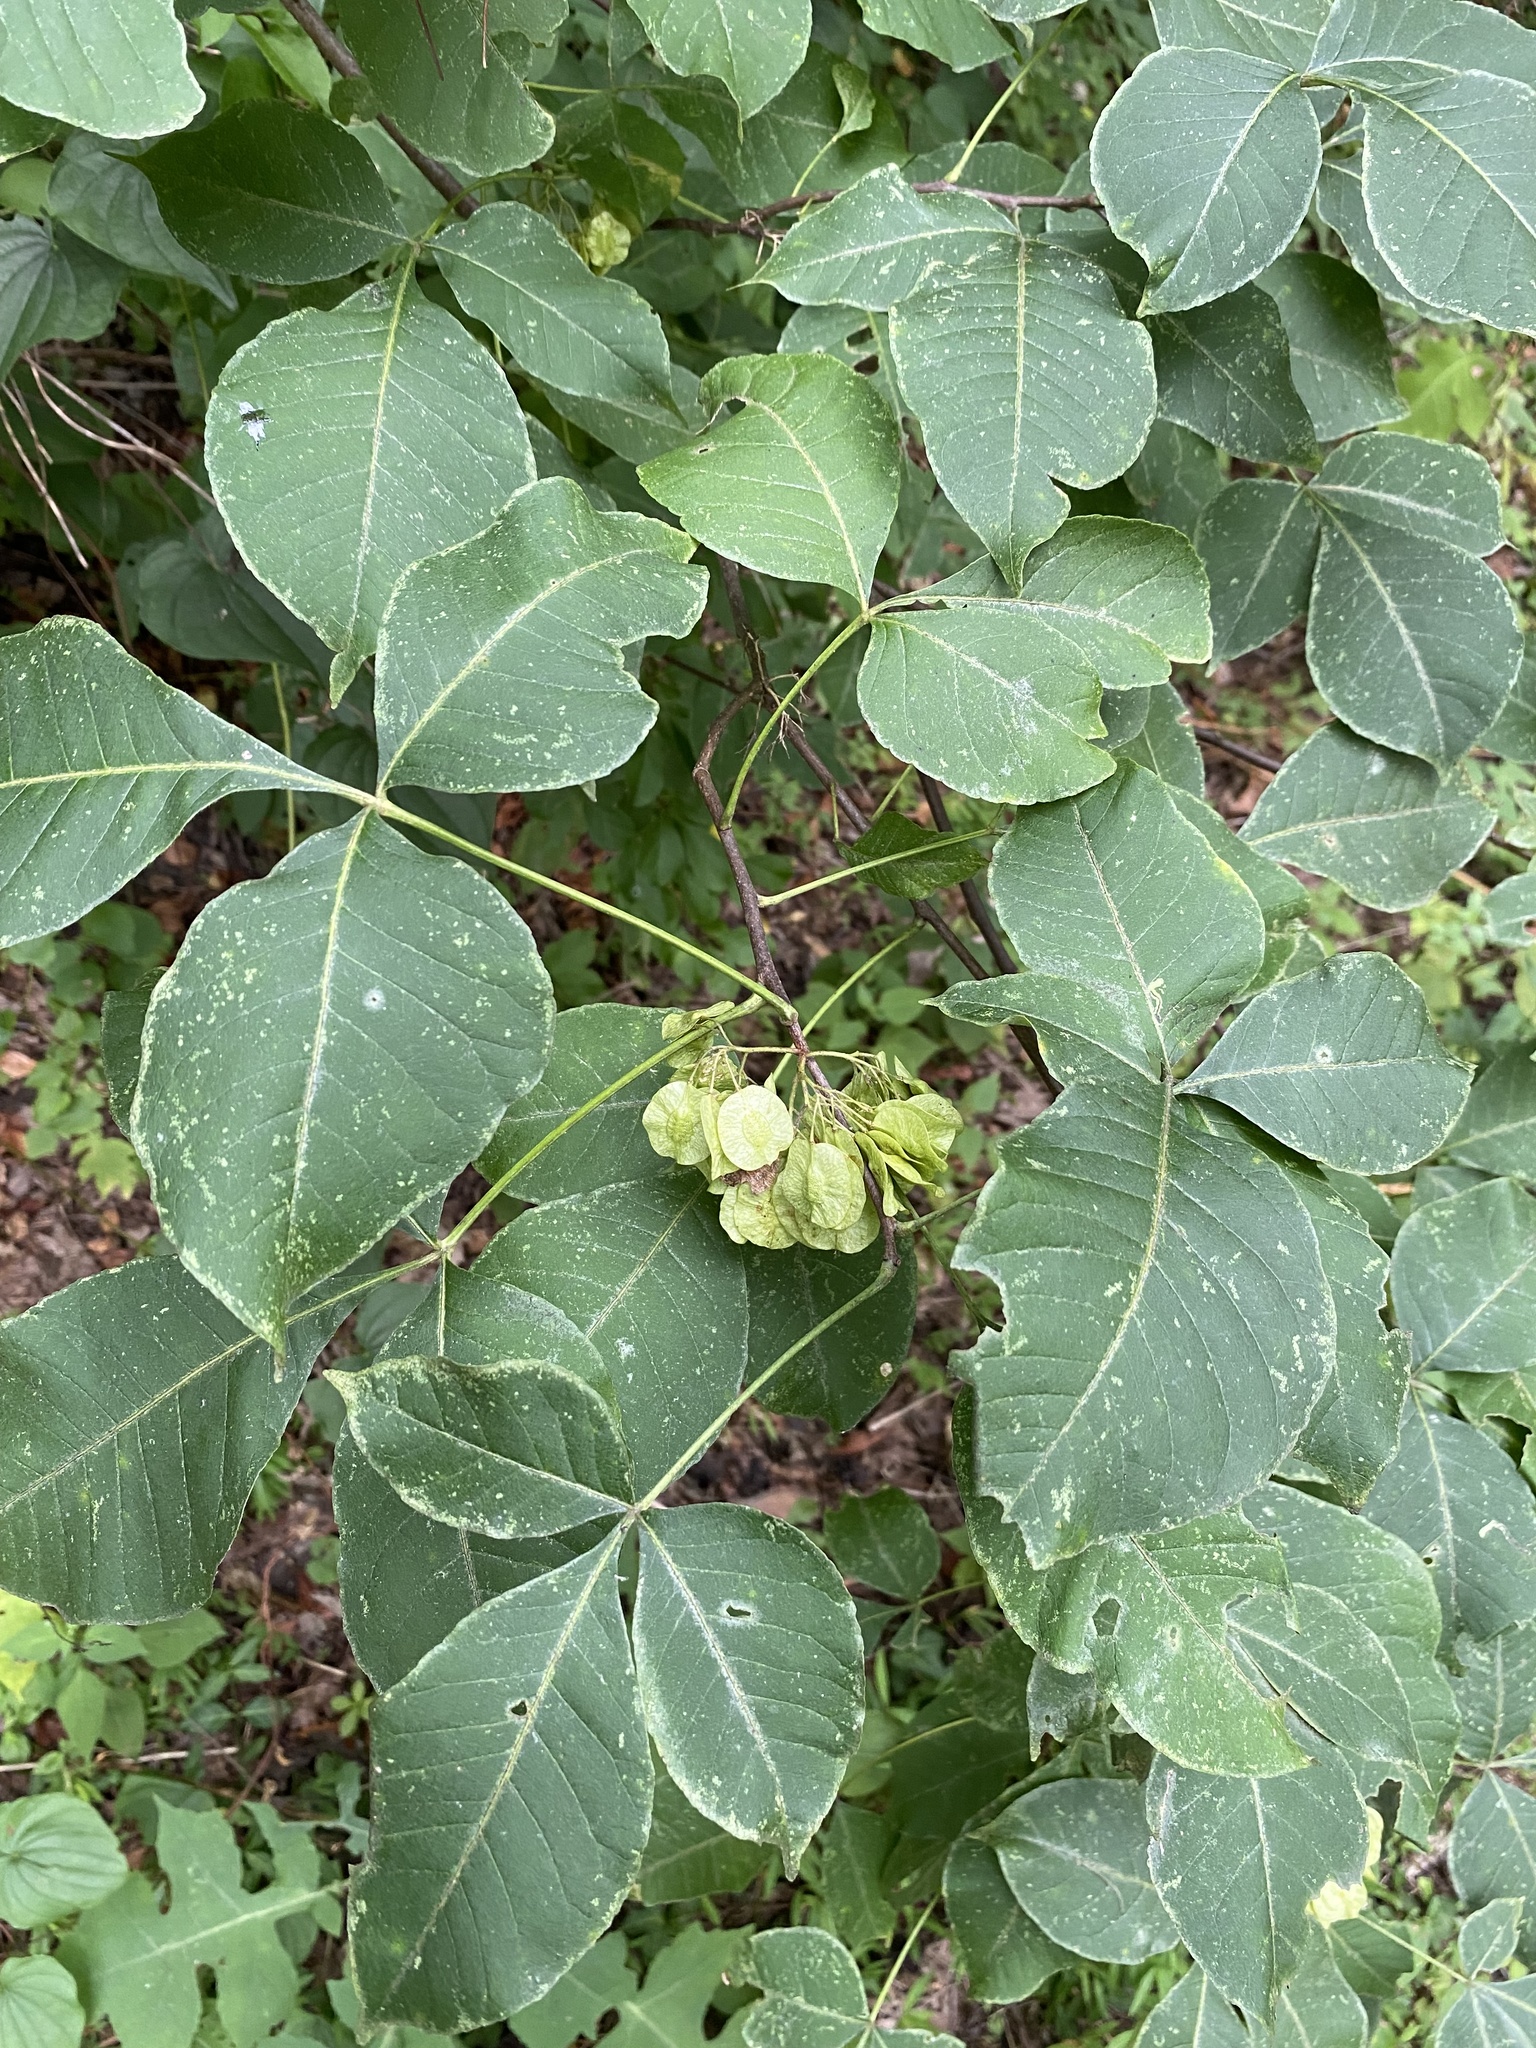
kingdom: Plantae
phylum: Tracheophyta
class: Magnoliopsida
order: Sapindales
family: Rutaceae
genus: Ptelea
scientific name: Ptelea trifoliata
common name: Common hop-tree
